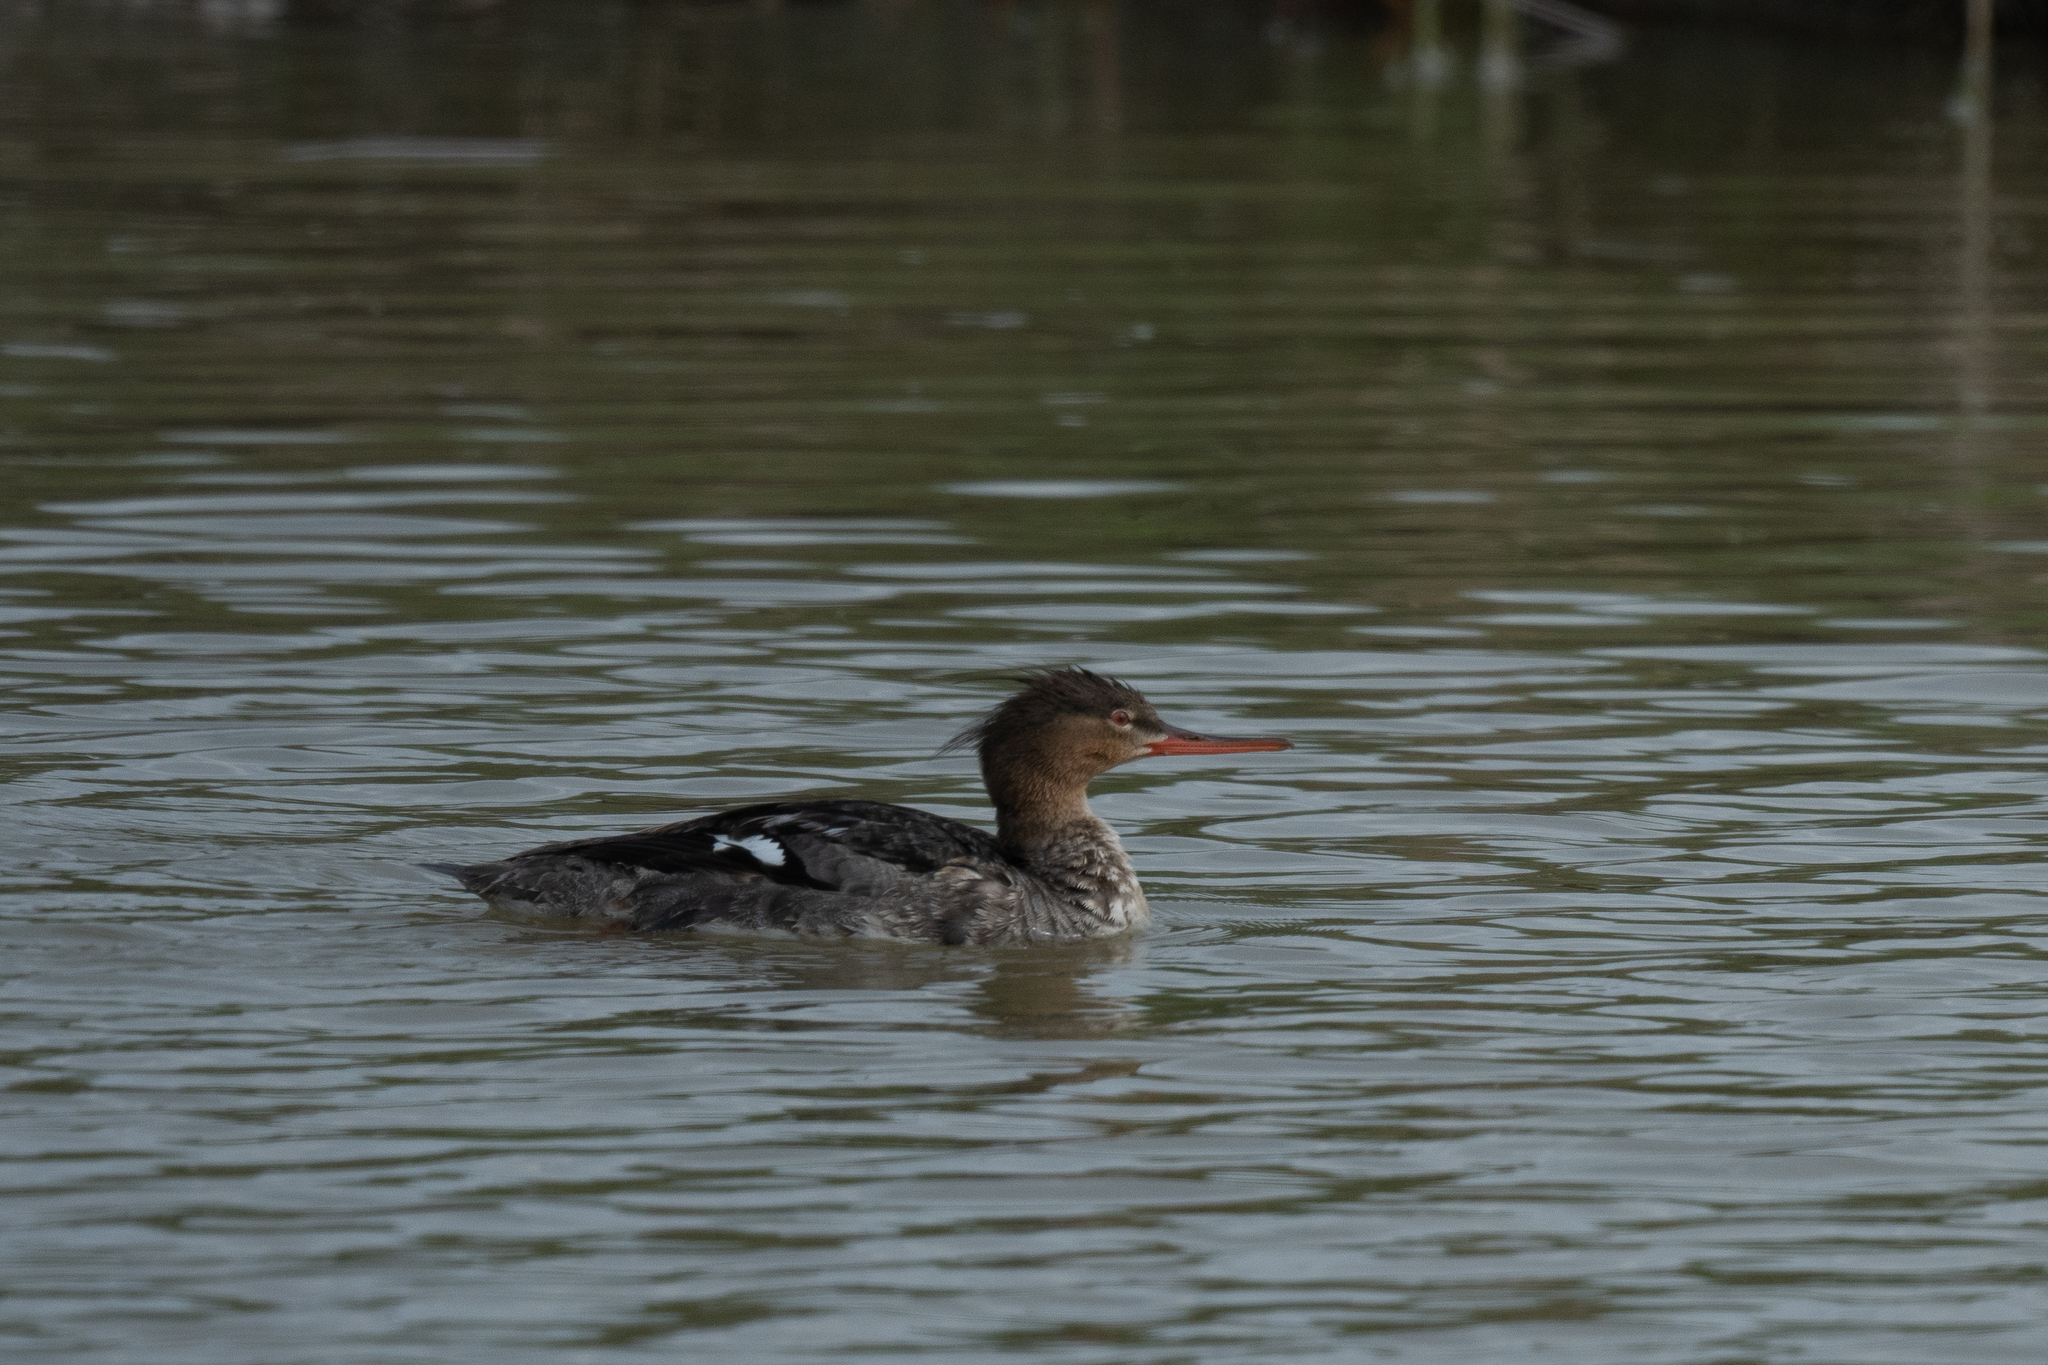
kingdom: Animalia
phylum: Chordata
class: Aves
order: Anseriformes
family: Anatidae
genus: Mergus
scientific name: Mergus serrator
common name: Red-breasted merganser
